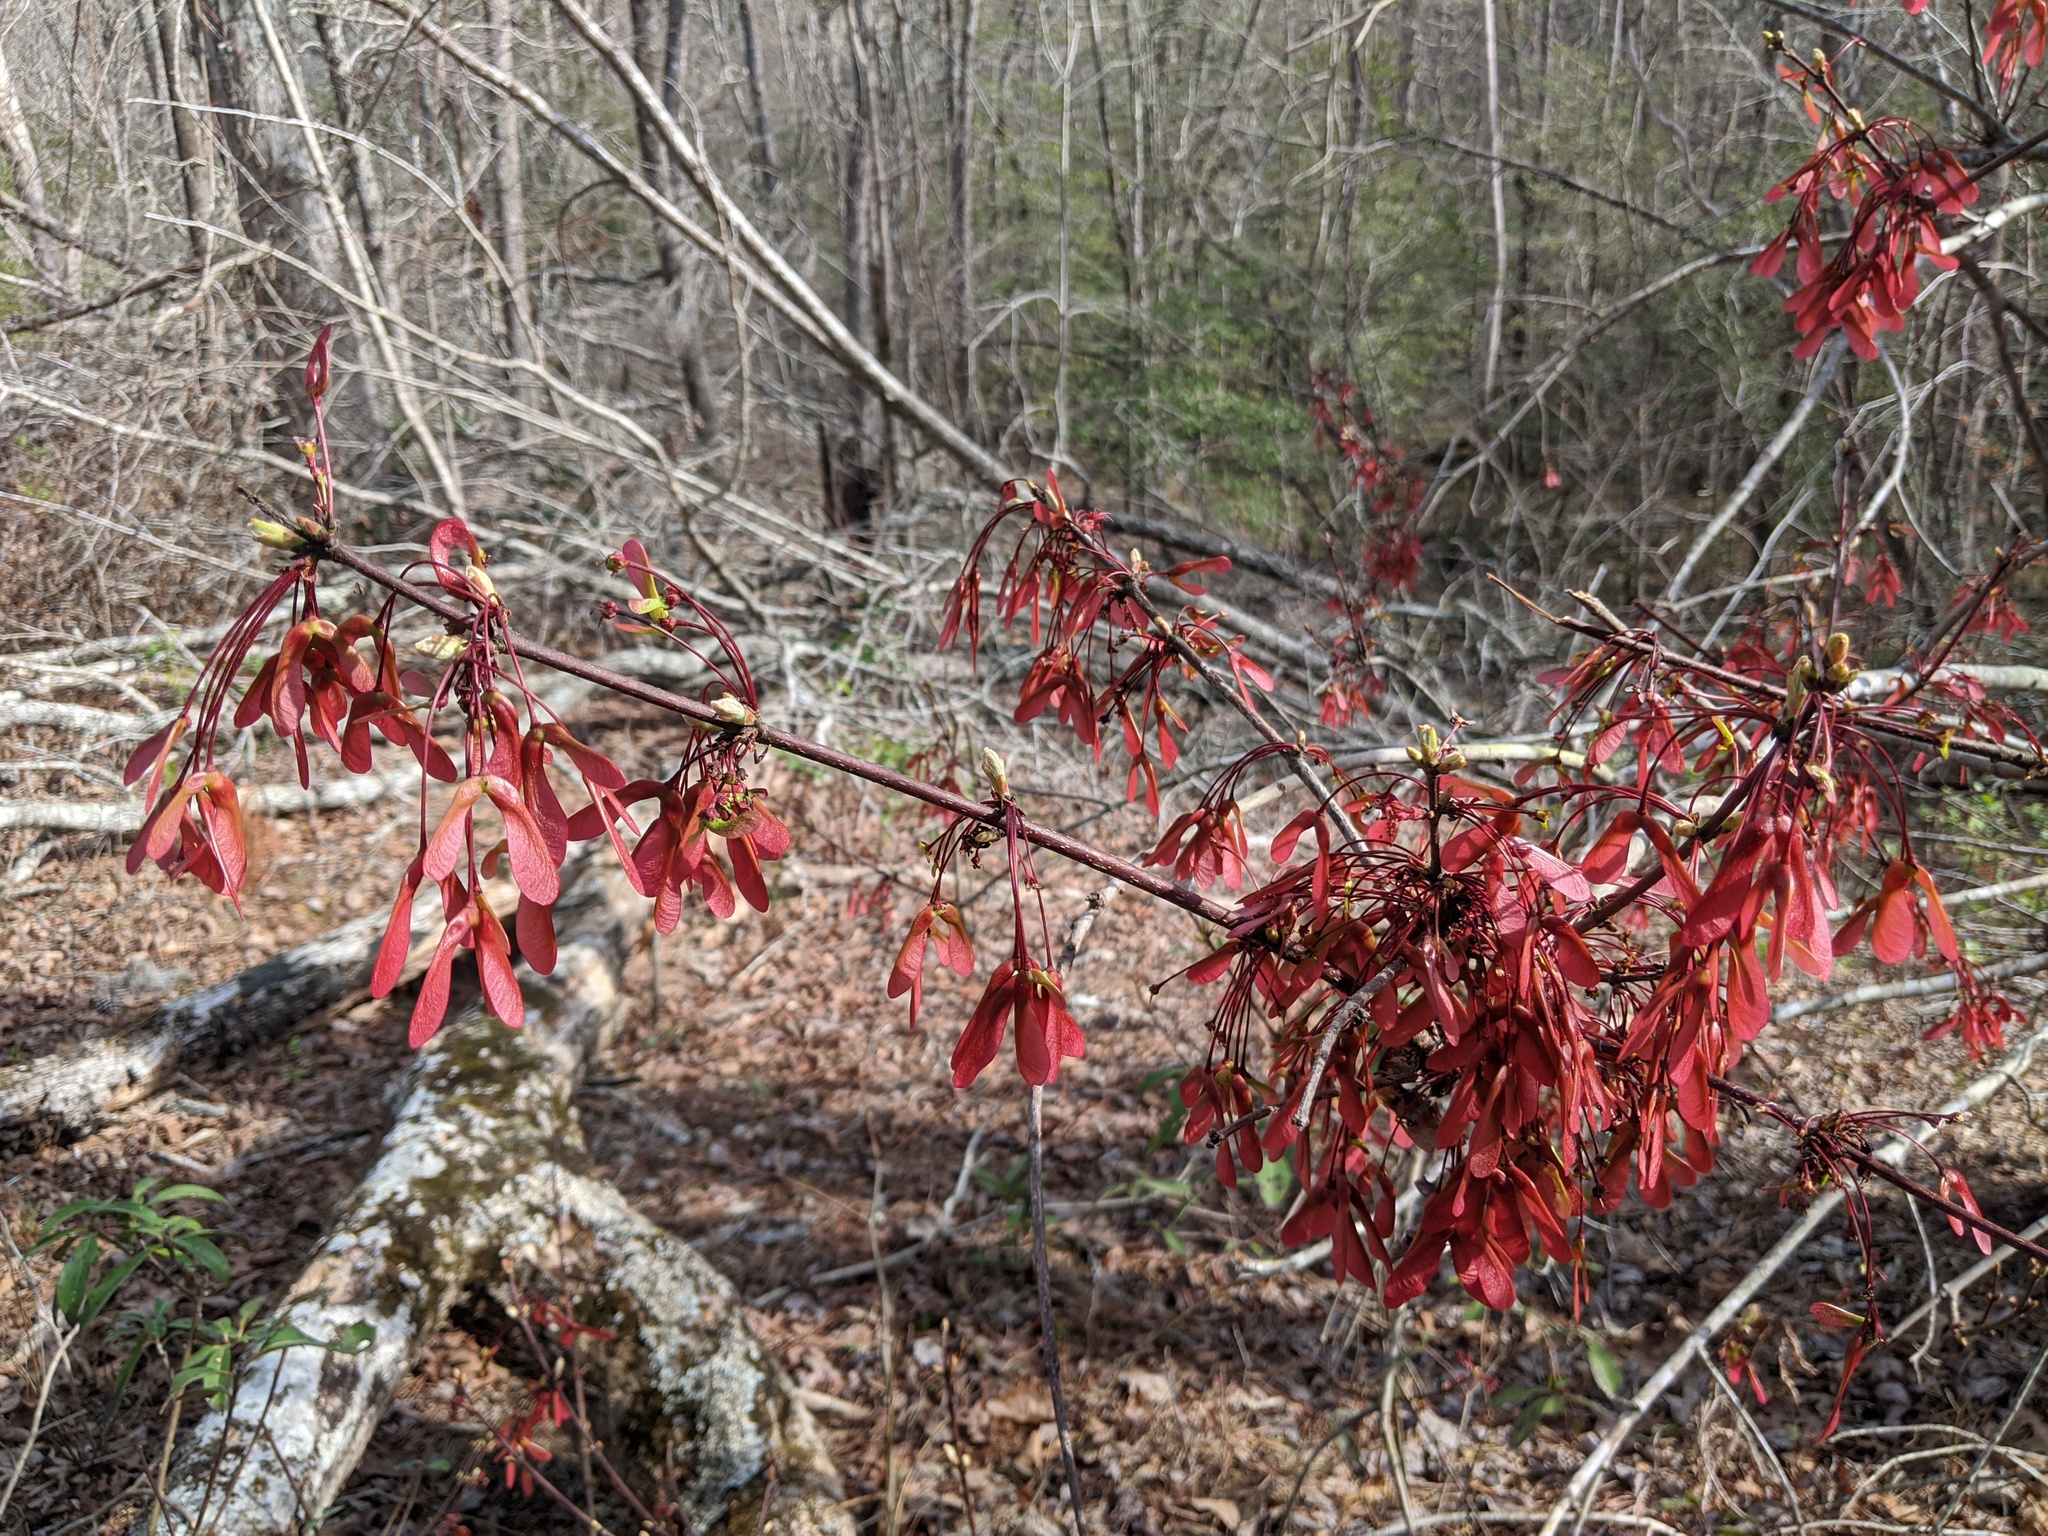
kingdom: Plantae
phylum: Tracheophyta
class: Magnoliopsida
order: Sapindales
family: Sapindaceae
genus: Acer
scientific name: Acer rubrum
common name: Red maple
